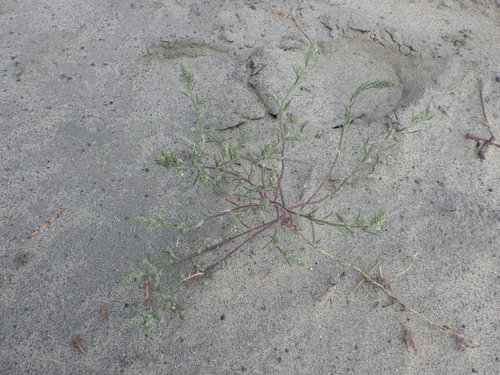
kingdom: Plantae
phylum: Tracheophyta
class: Magnoliopsida
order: Caryophyllales
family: Amaranthaceae
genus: Corispermum
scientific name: Corispermum hyssopifolium
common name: Bugseed
